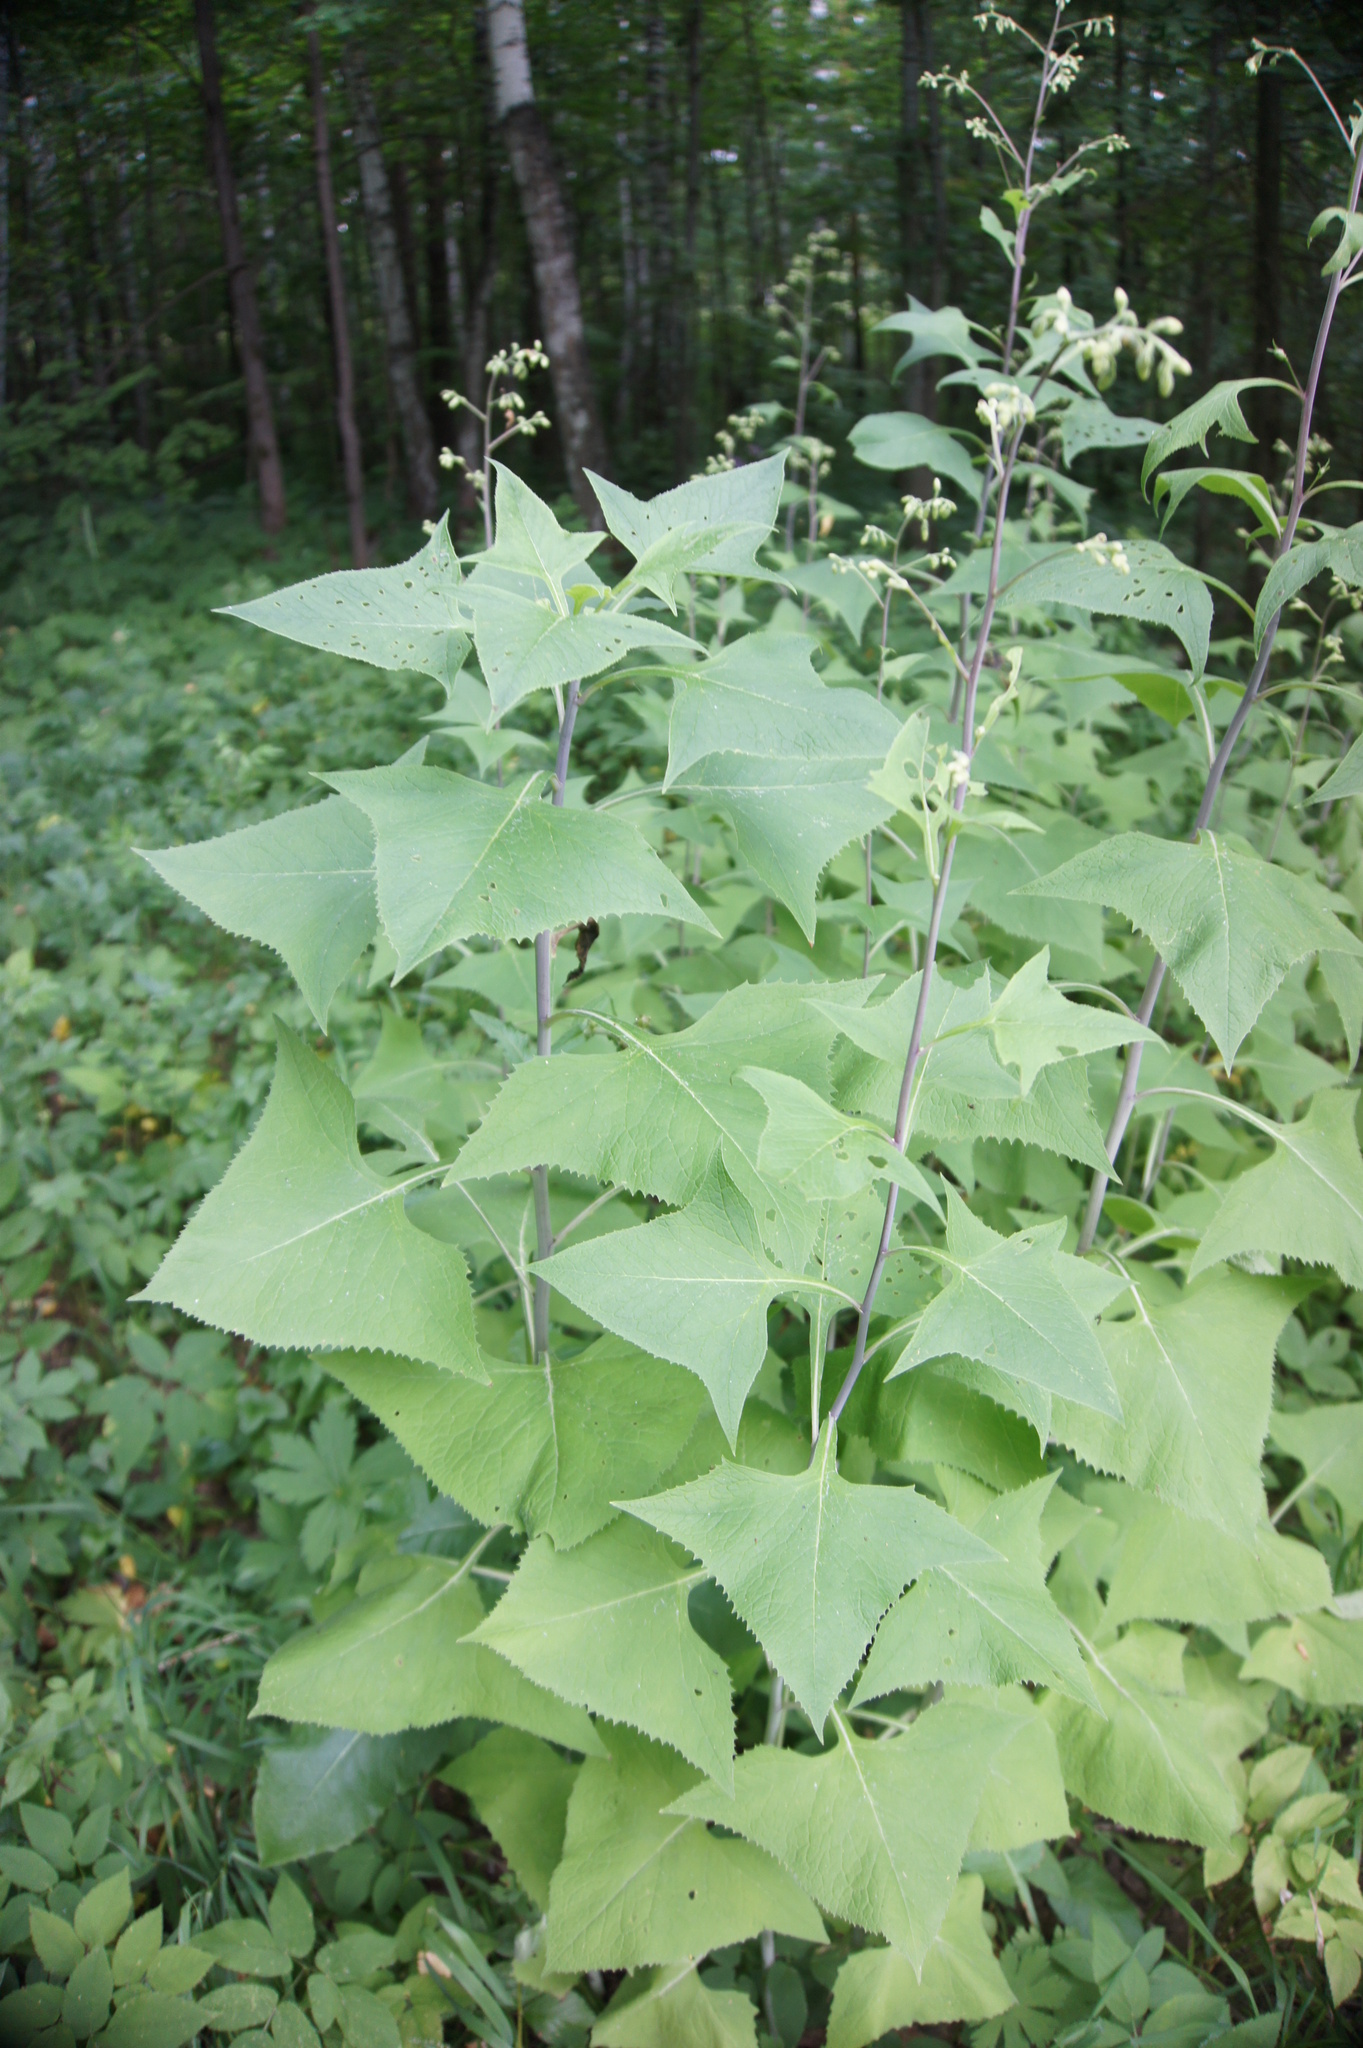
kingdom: Plantae
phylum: Tracheophyta
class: Magnoliopsida
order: Asterales
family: Asteraceae
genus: Parasenecio
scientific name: Parasenecio hastatus
